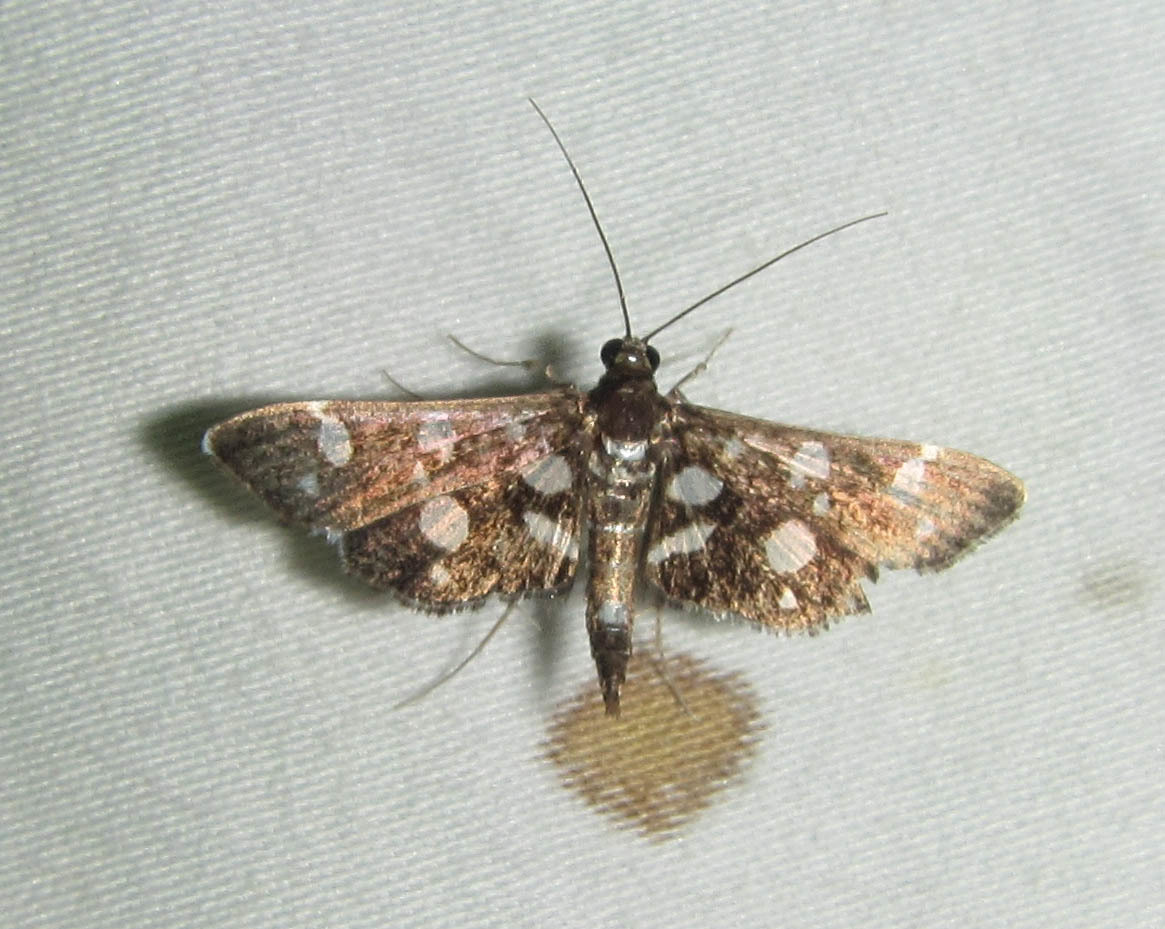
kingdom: Animalia
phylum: Arthropoda
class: Insecta
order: Lepidoptera
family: Crambidae
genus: Bocchoris
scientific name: Bocchoris inspersalis
